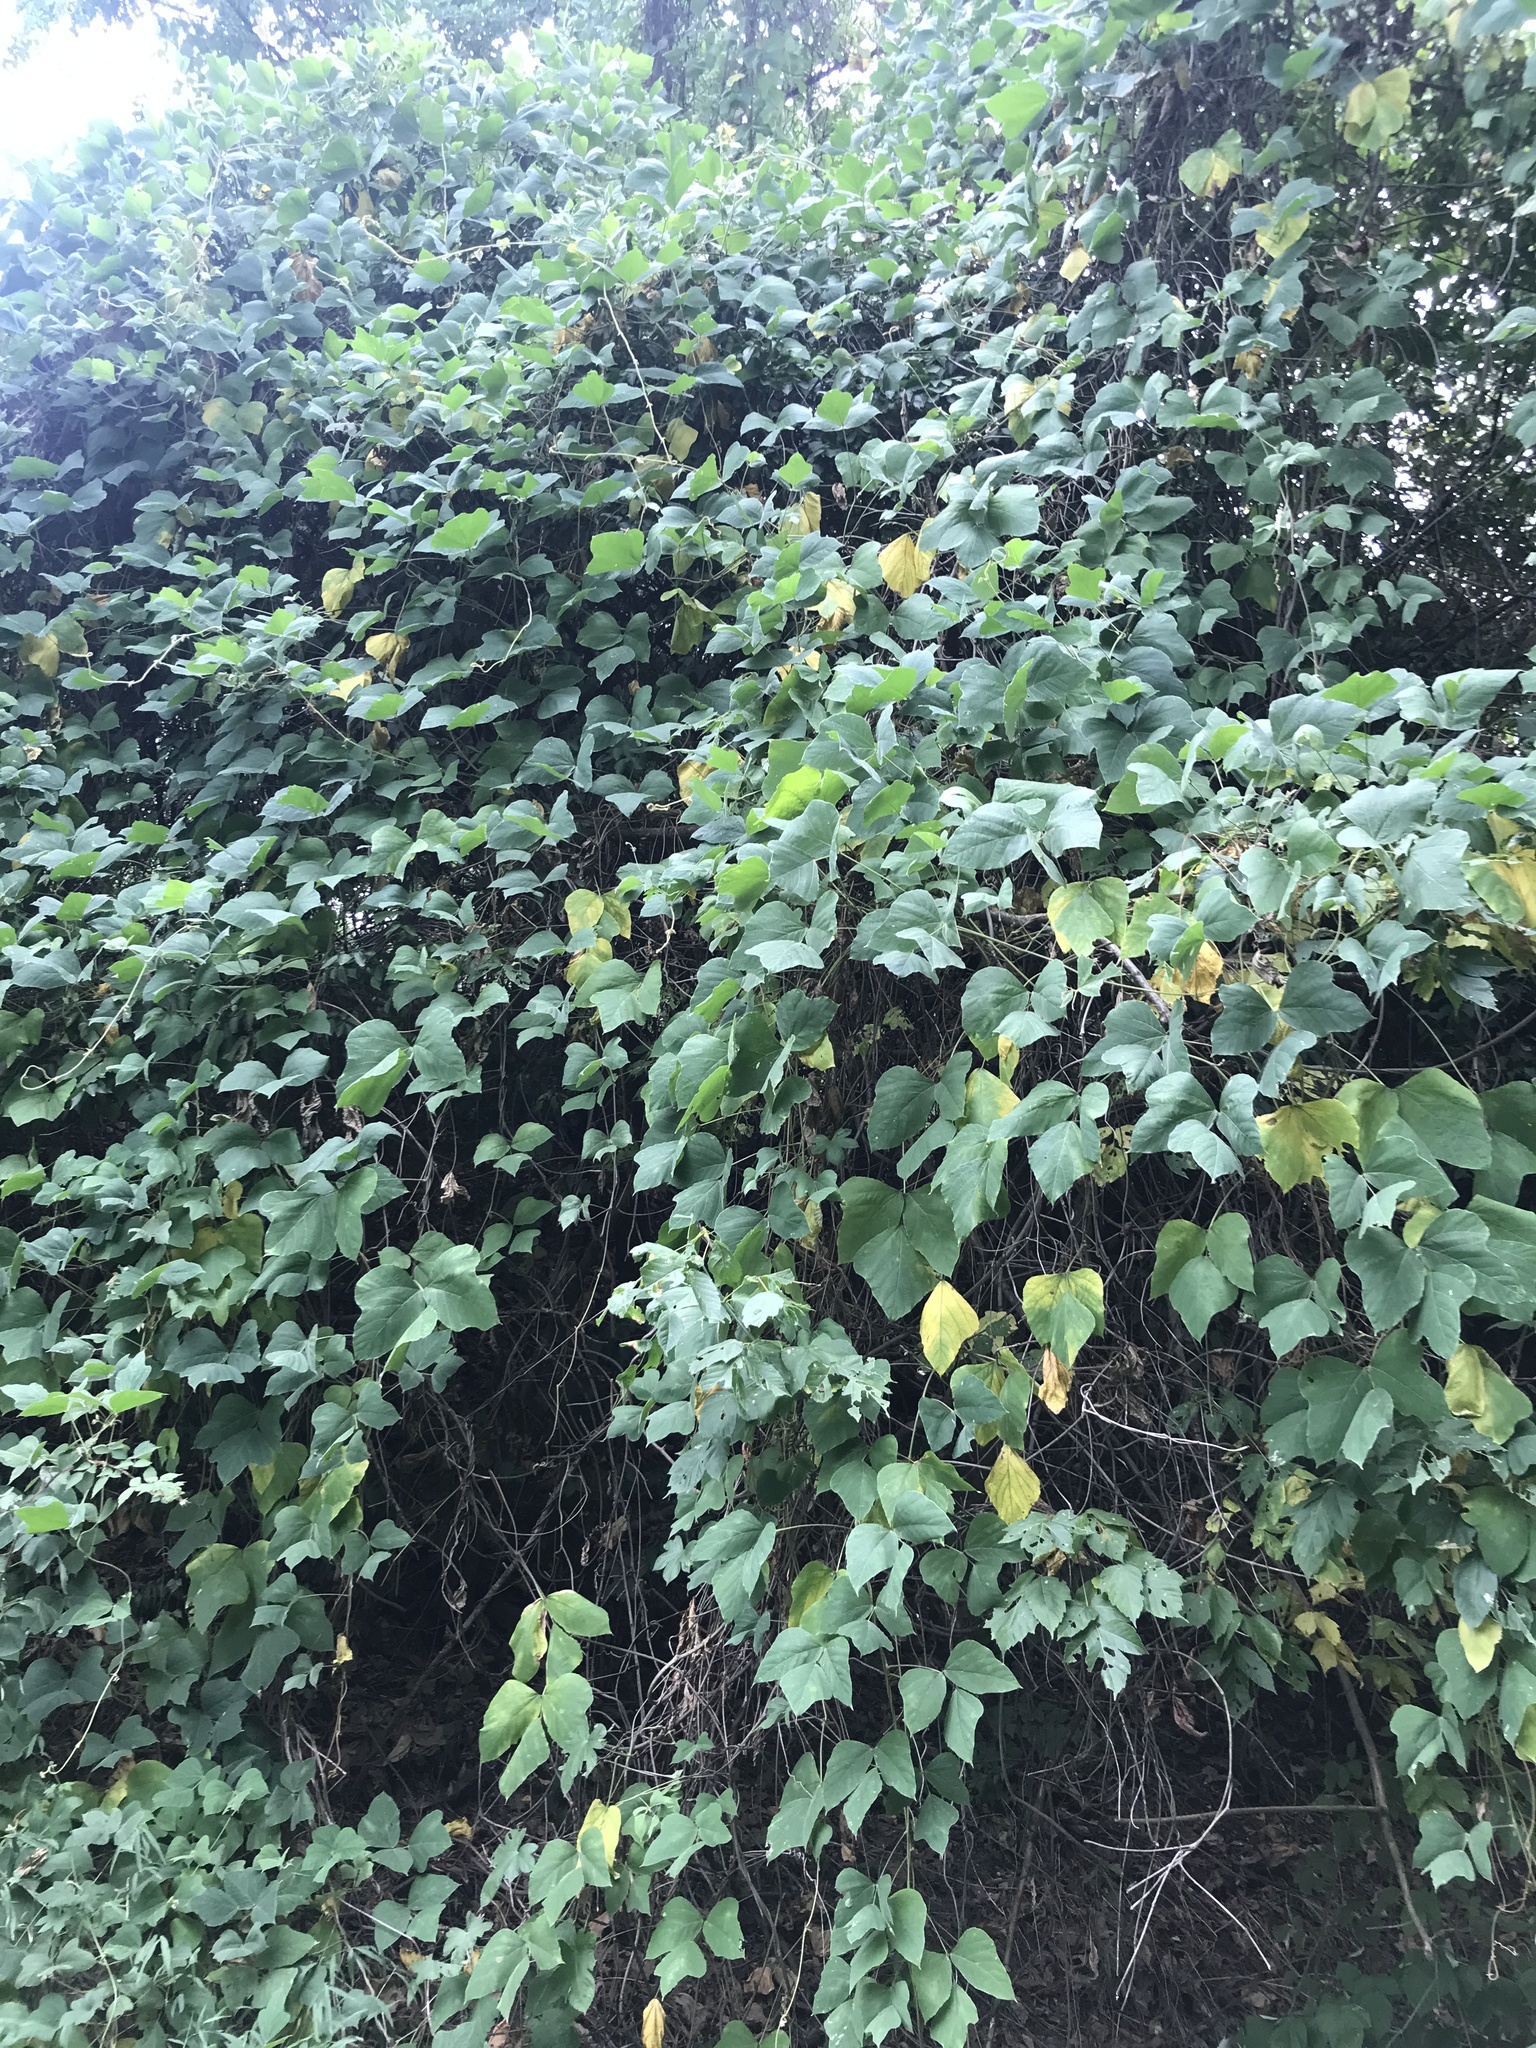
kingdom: Plantae
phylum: Tracheophyta
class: Magnoliopsida
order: Fabales
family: Fabaceae
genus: Pueraria
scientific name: Pueraria montana
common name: Kudzu
